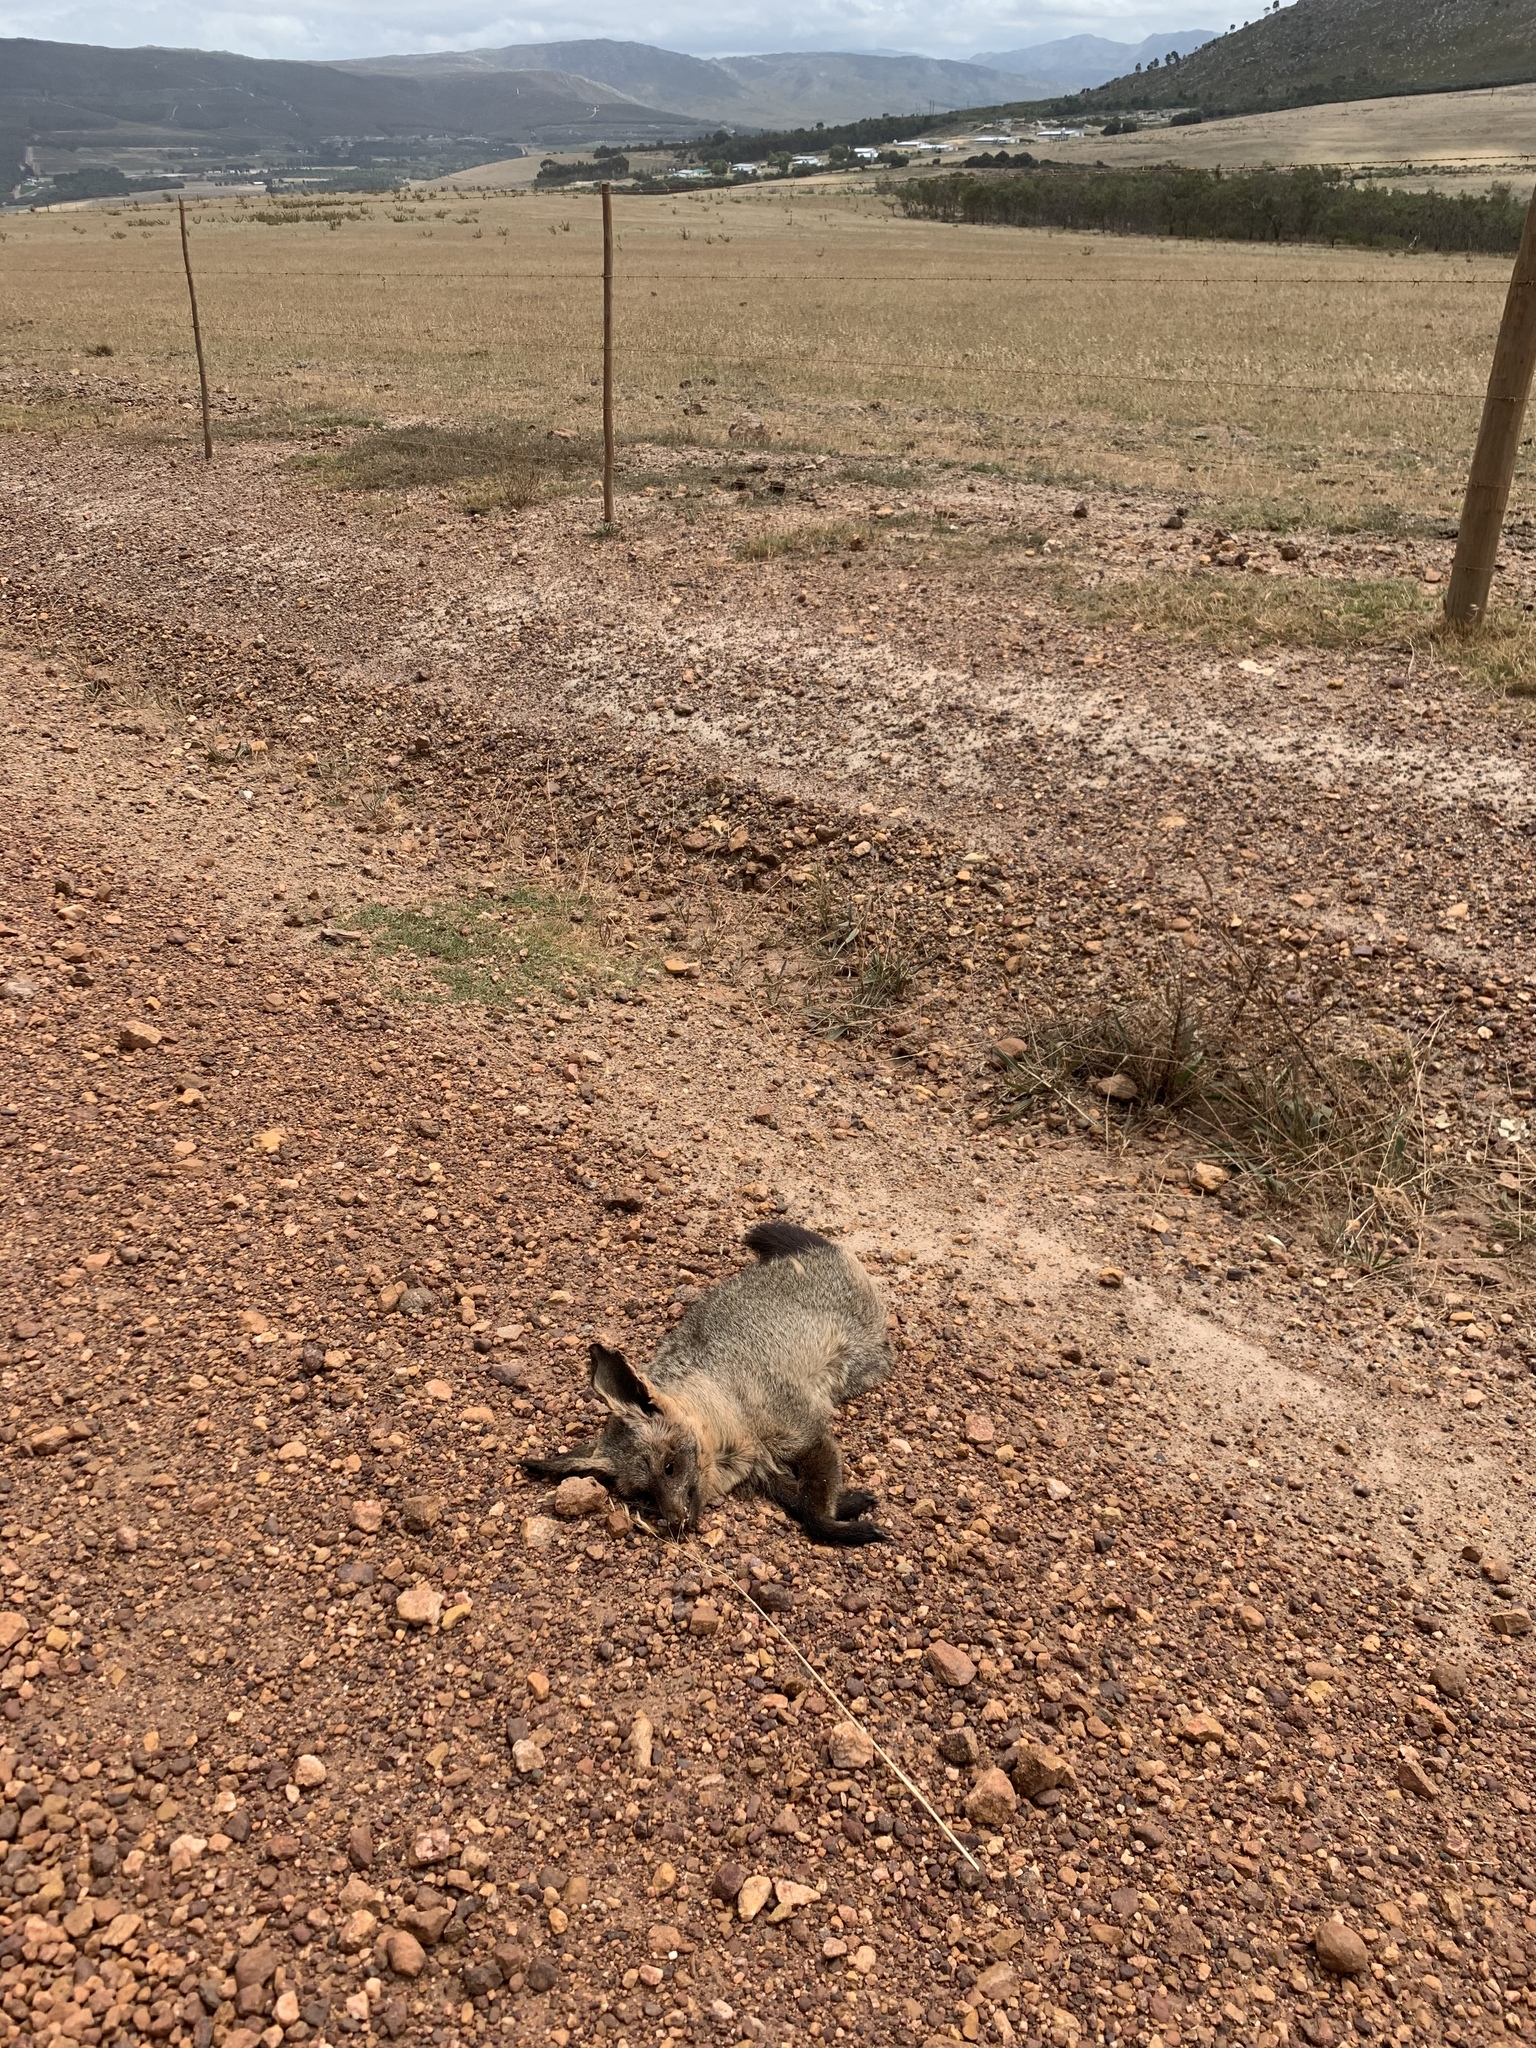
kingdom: Animalia
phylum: Chordata
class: Mammalia
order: Carnivora
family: Canidae
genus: Otocyon
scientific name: Otocyon megalotis
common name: Bat-eared fox
